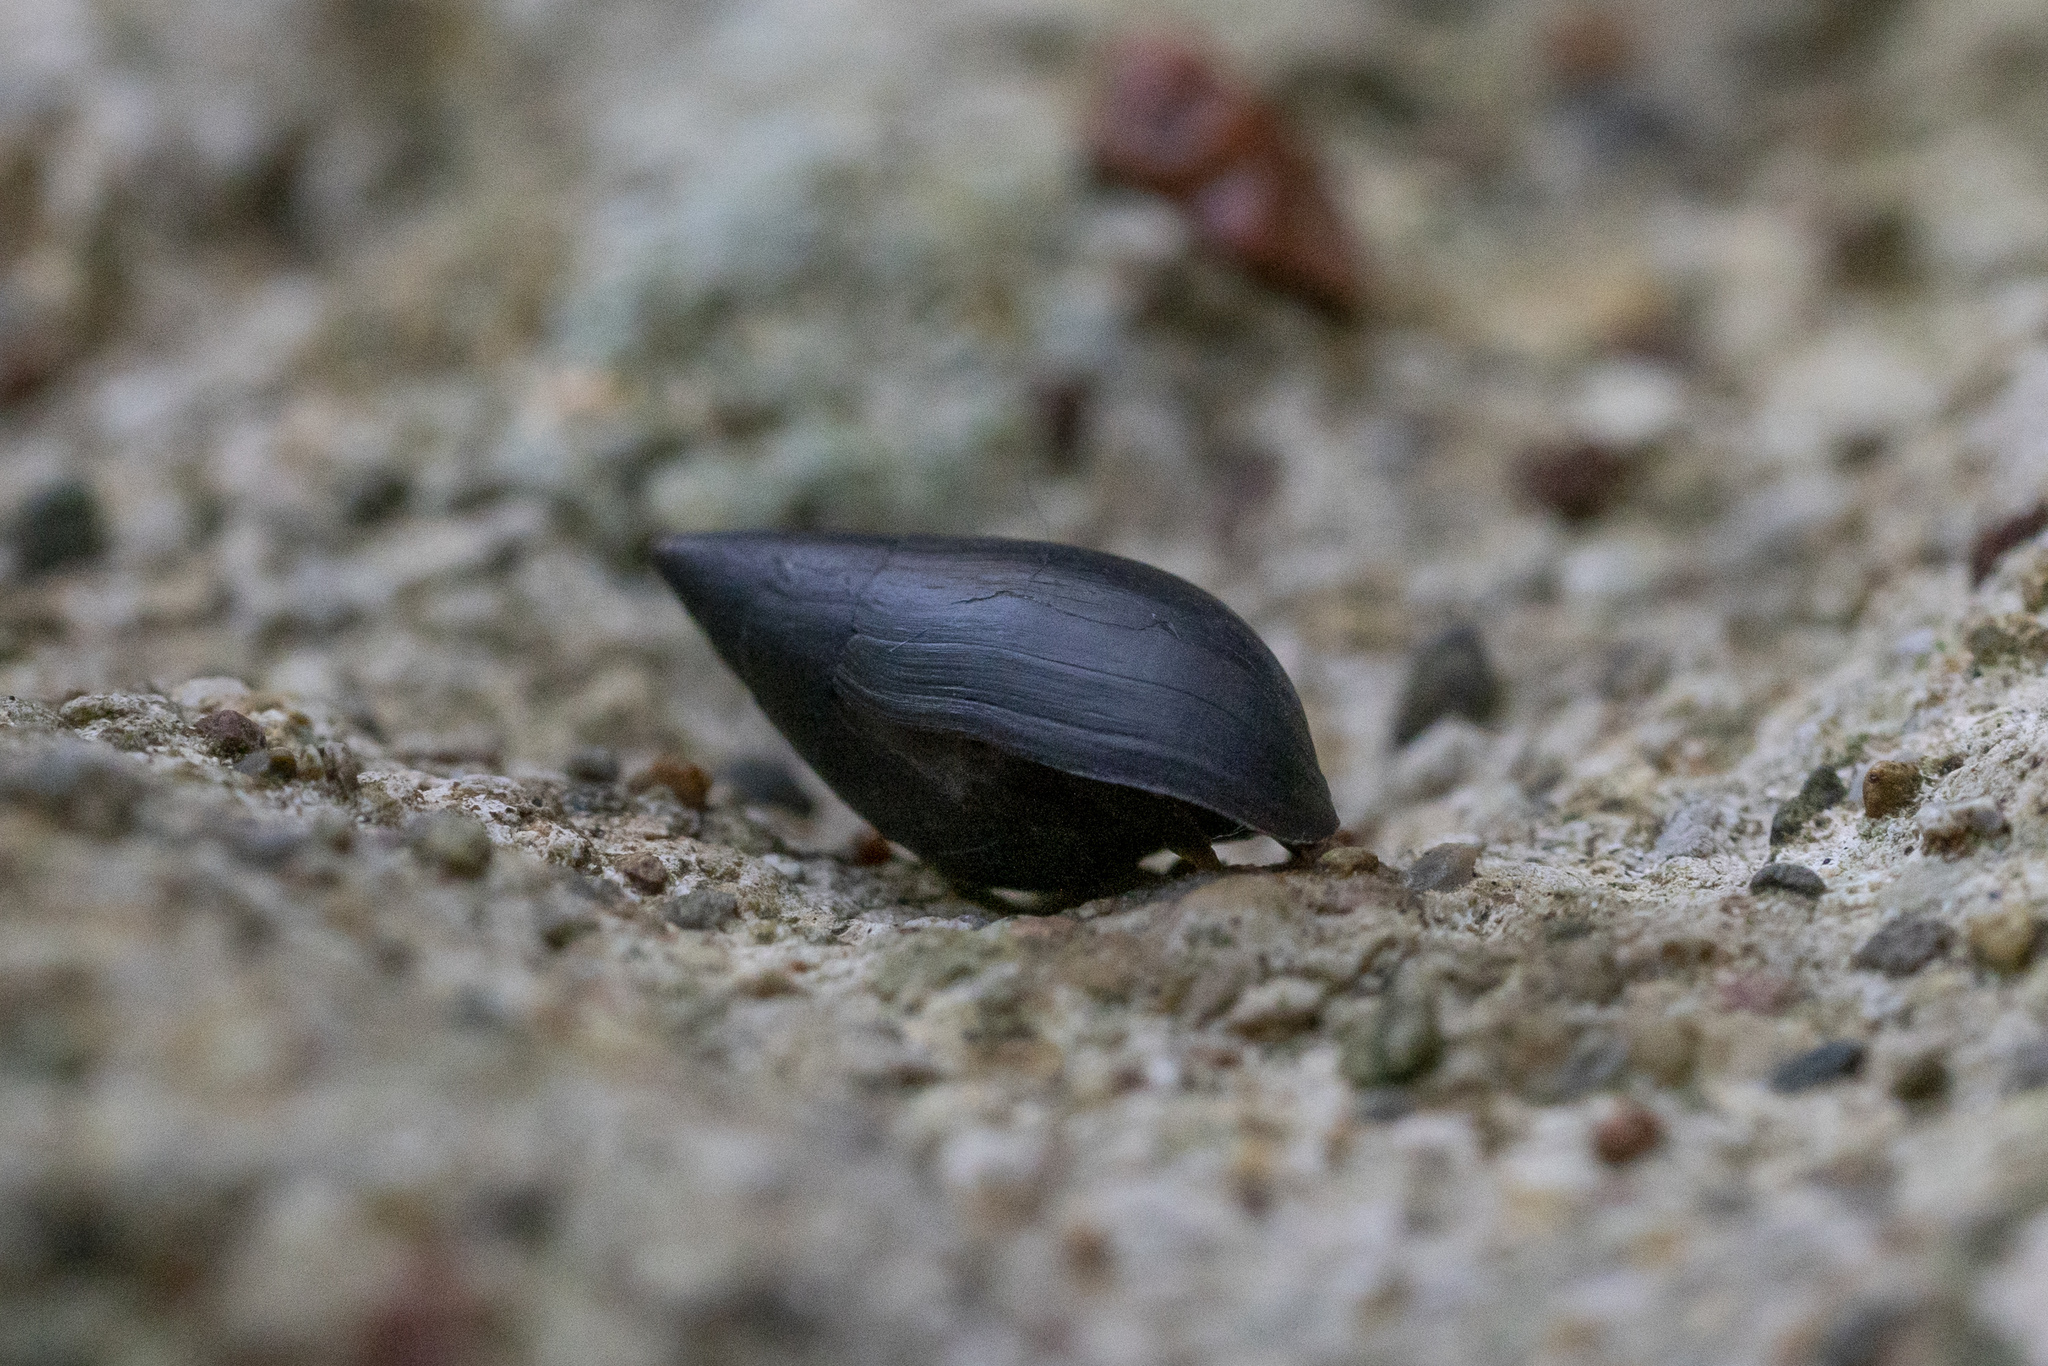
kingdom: Animalia
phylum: Mollusca
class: Gastropoda
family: Melanopsidae
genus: Melanopsis
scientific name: Melanopsis wagneri
